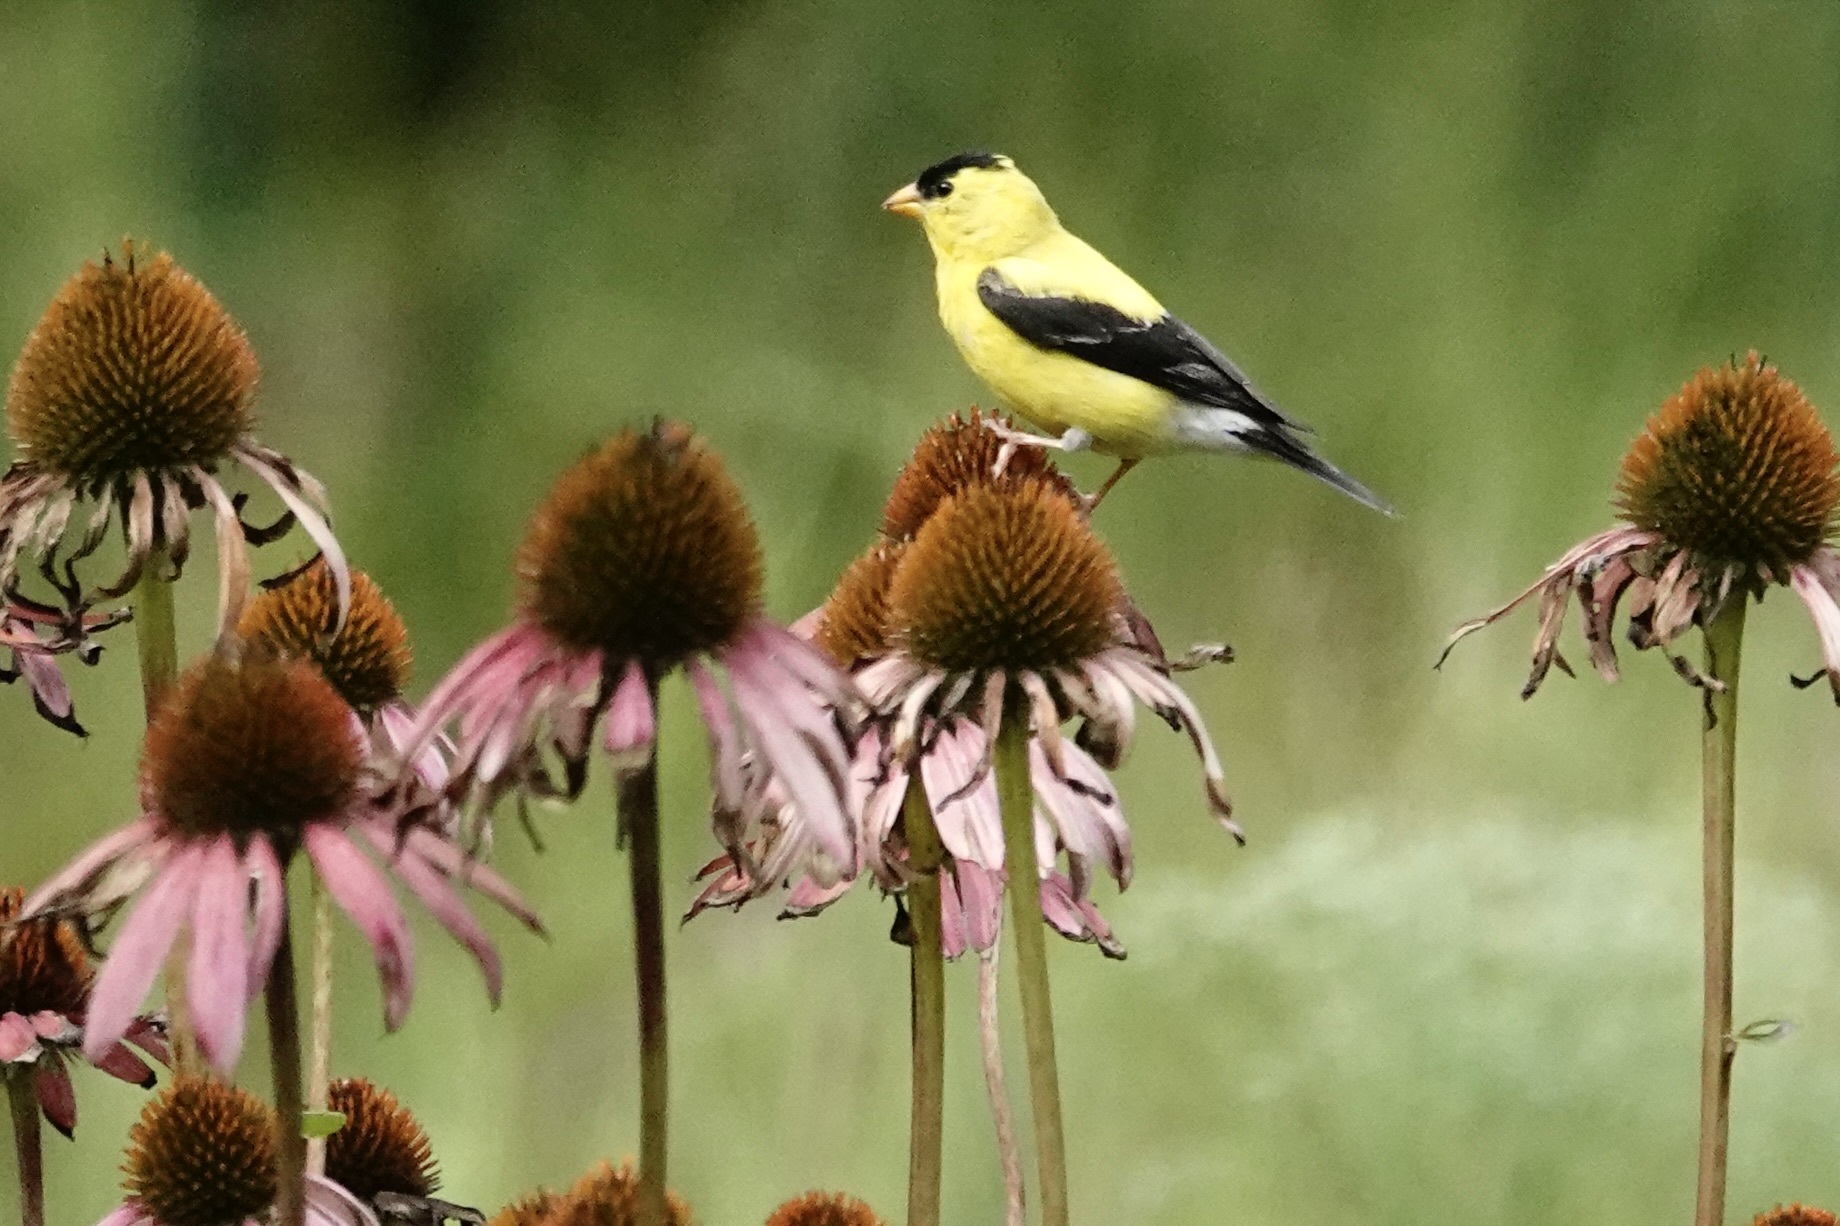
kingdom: Animalia
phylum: Chordata
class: Aves
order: Passeriformes
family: Fringillidae
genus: Spinus
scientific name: Spinus tristis
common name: American goldfinch
